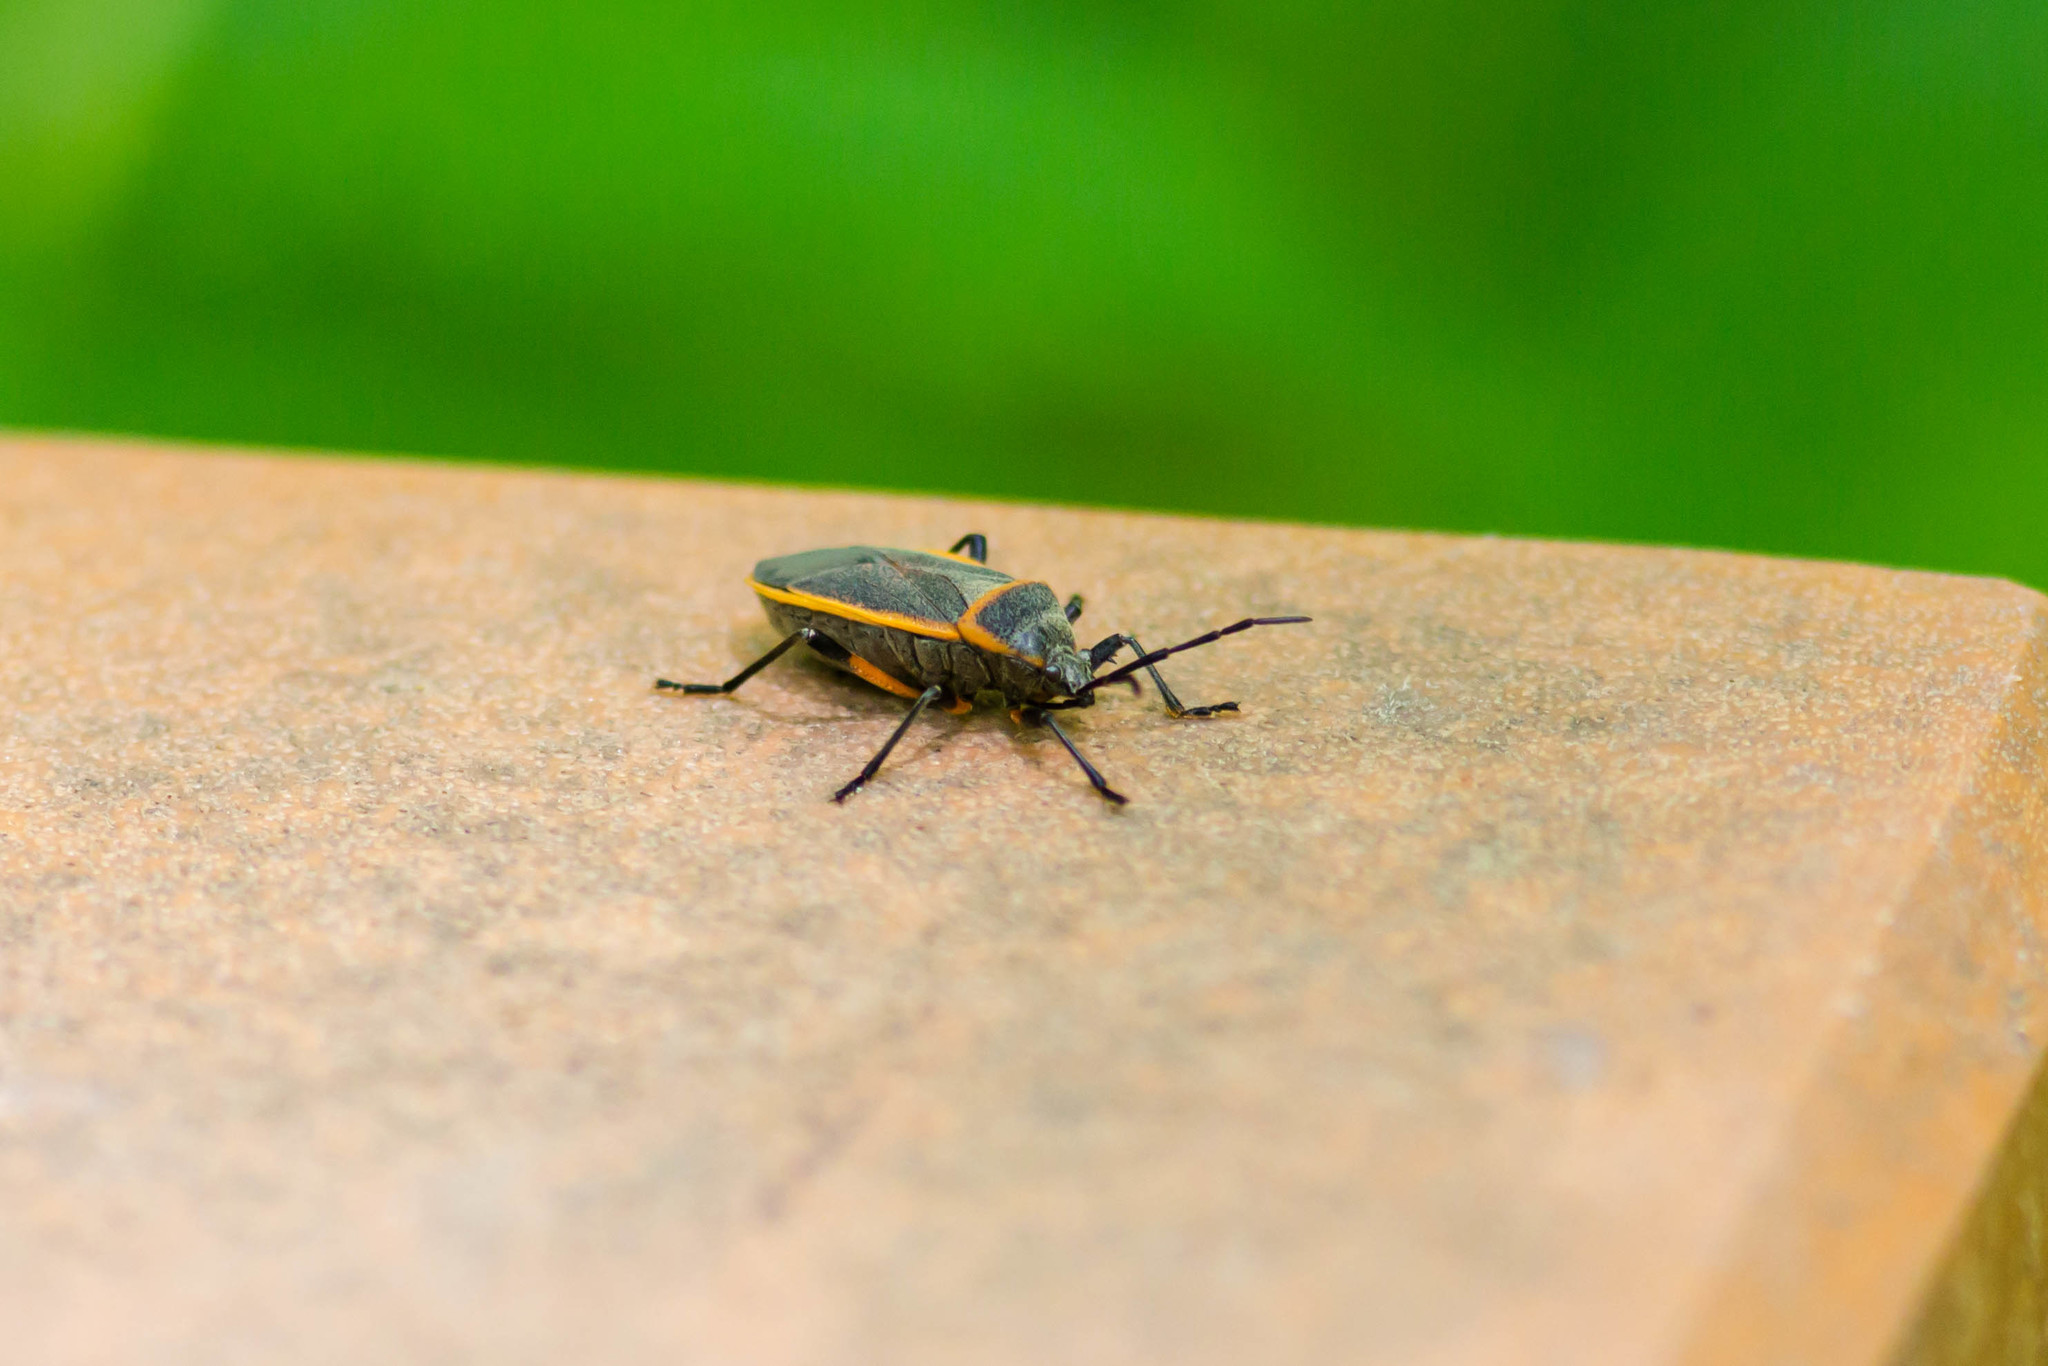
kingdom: Animalia
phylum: Arthropoda
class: Insecta
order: Hemiptera
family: Largidae
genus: Largus
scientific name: Largus succinctus
